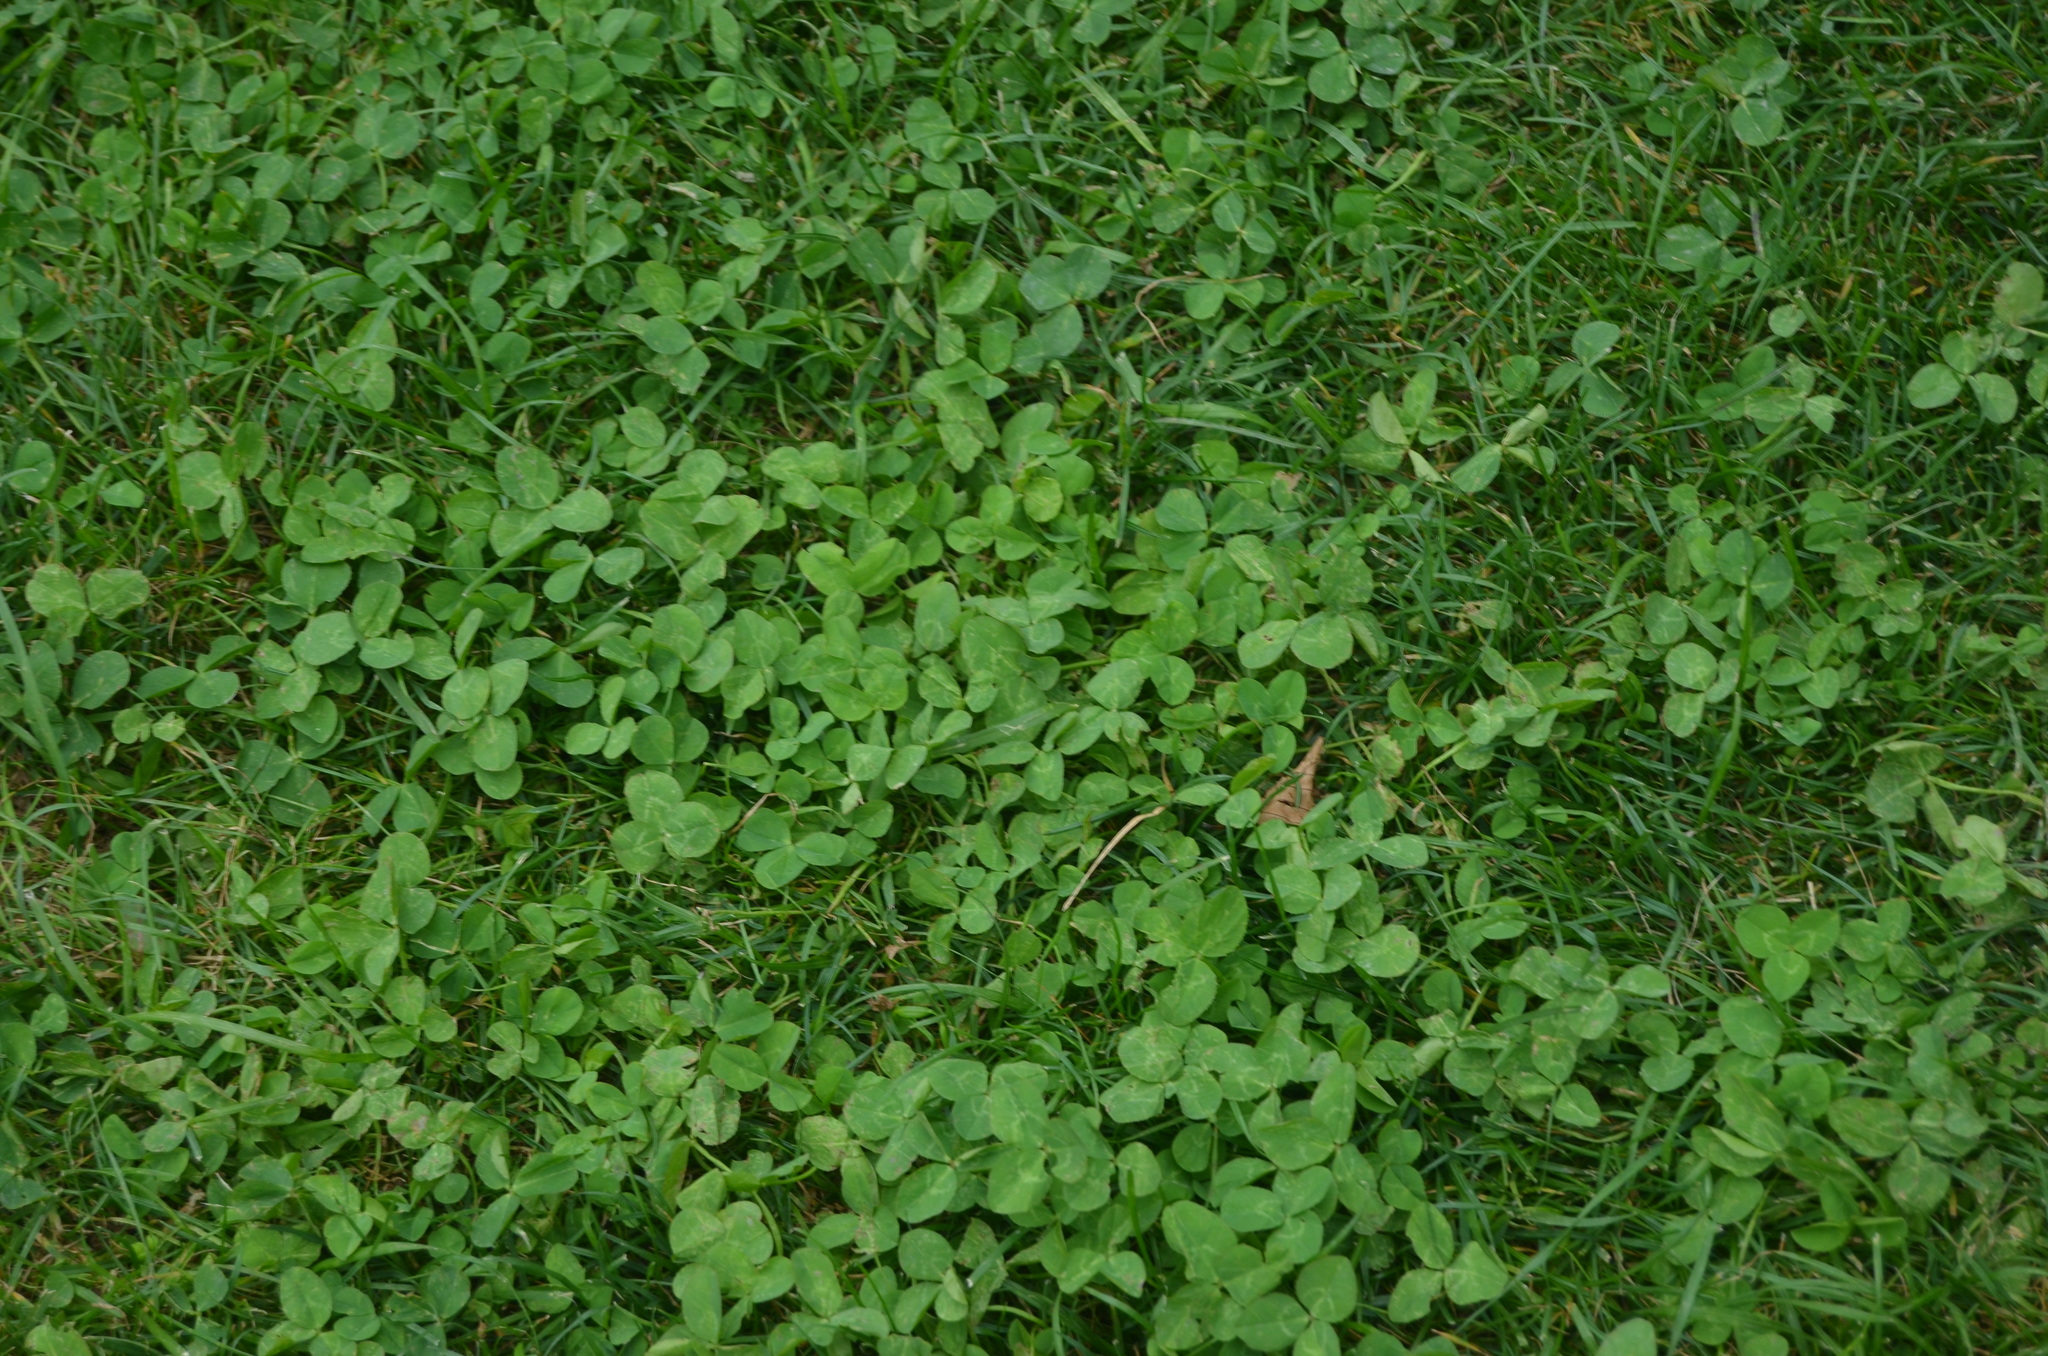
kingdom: Plantae
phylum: Tracheophyta
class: Magnoliopsida
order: Fabales
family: Fabaceae
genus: Trifolium
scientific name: Trifolium repens
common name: White clover
